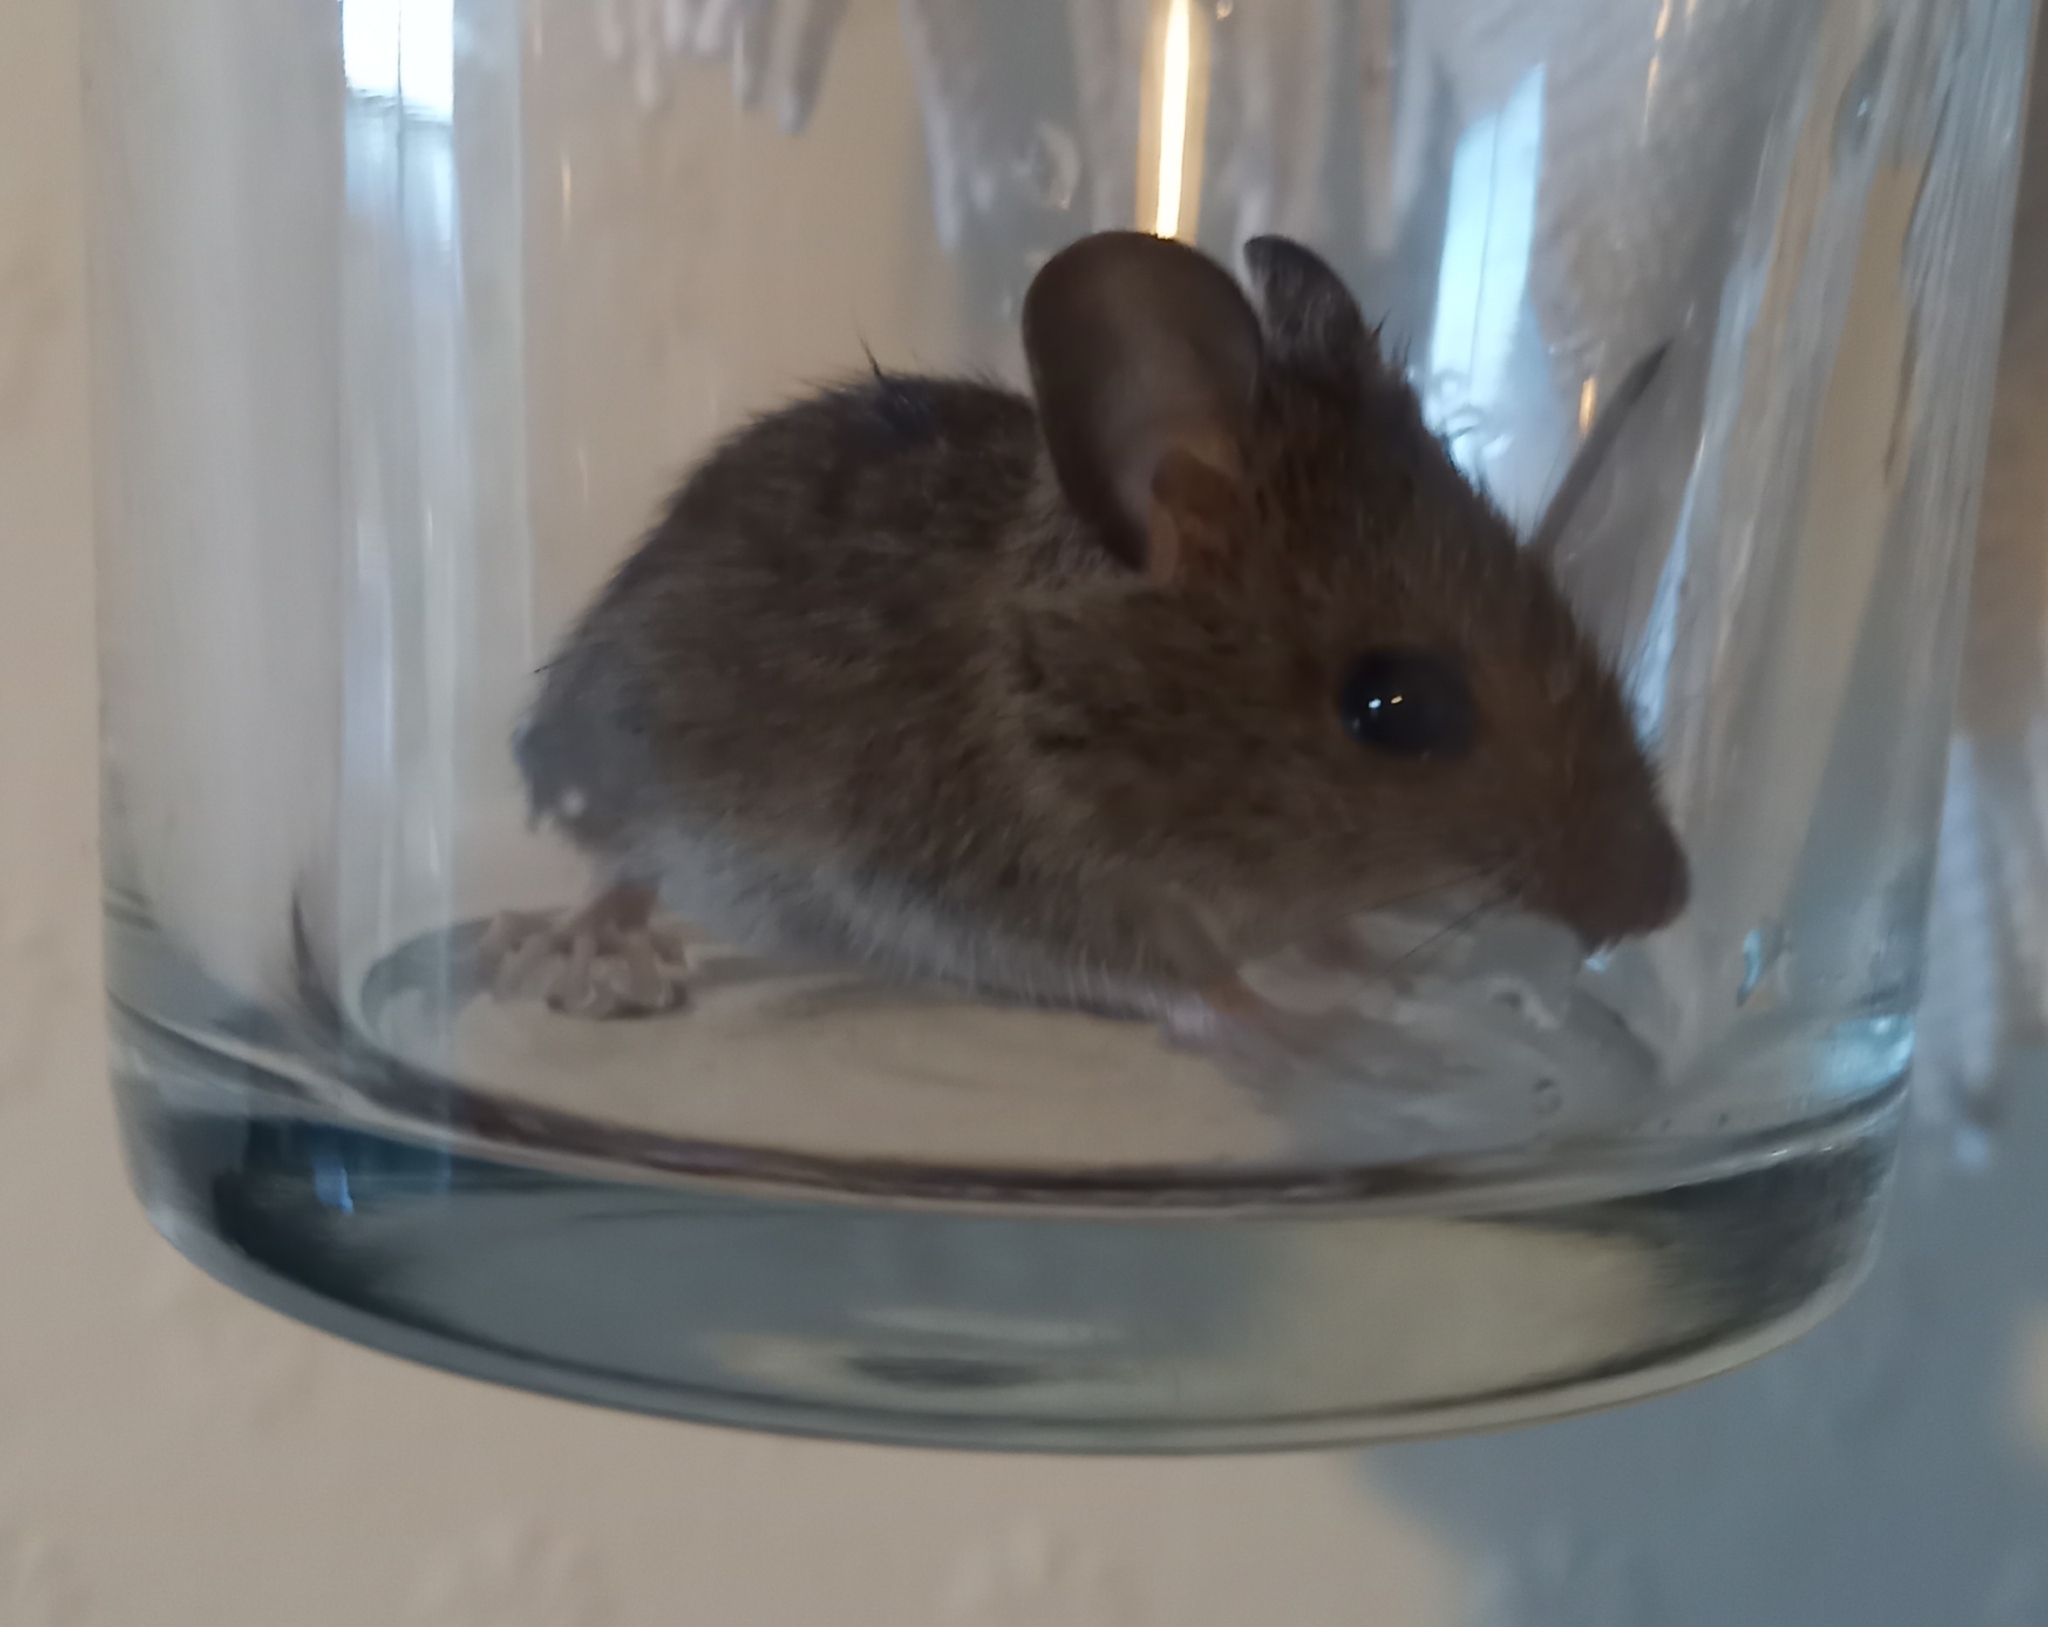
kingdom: Animalia
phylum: Chordata
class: Mammalia
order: Rodentia
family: Muridae
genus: Apodemus
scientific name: Apodemus sylvaticus
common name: Wood mouse
